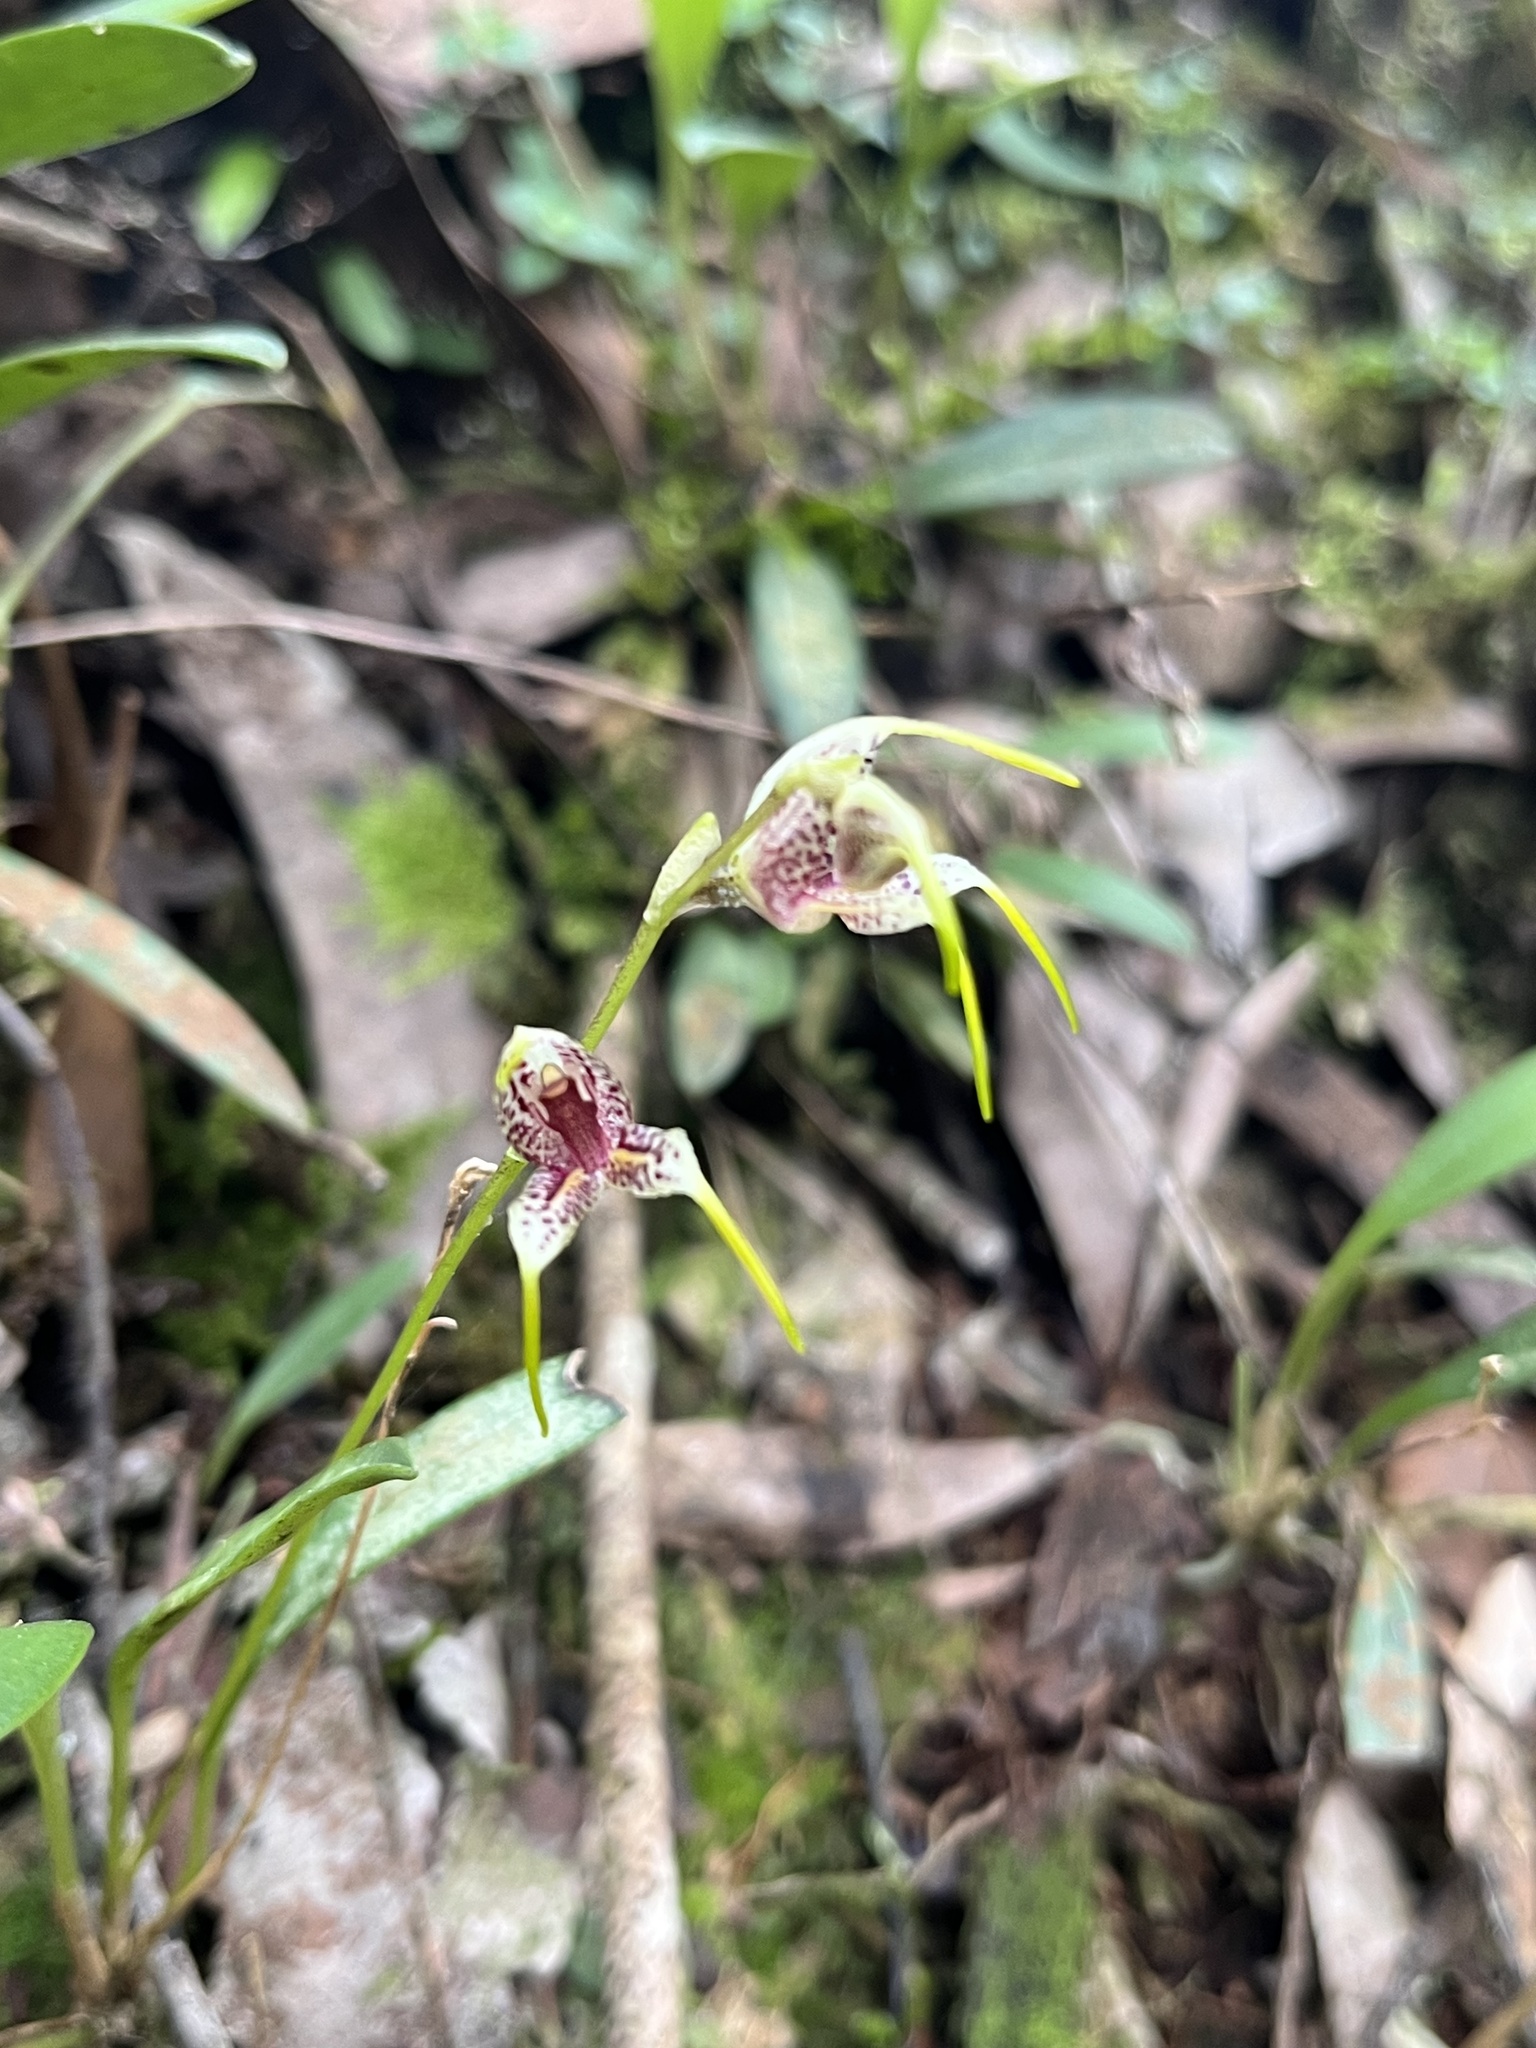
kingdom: Plantae
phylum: Tracheophyta
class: Liliopsida
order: Asparagales
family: Orchidaceae
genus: Masdevallia
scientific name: Masdevallia amanda
